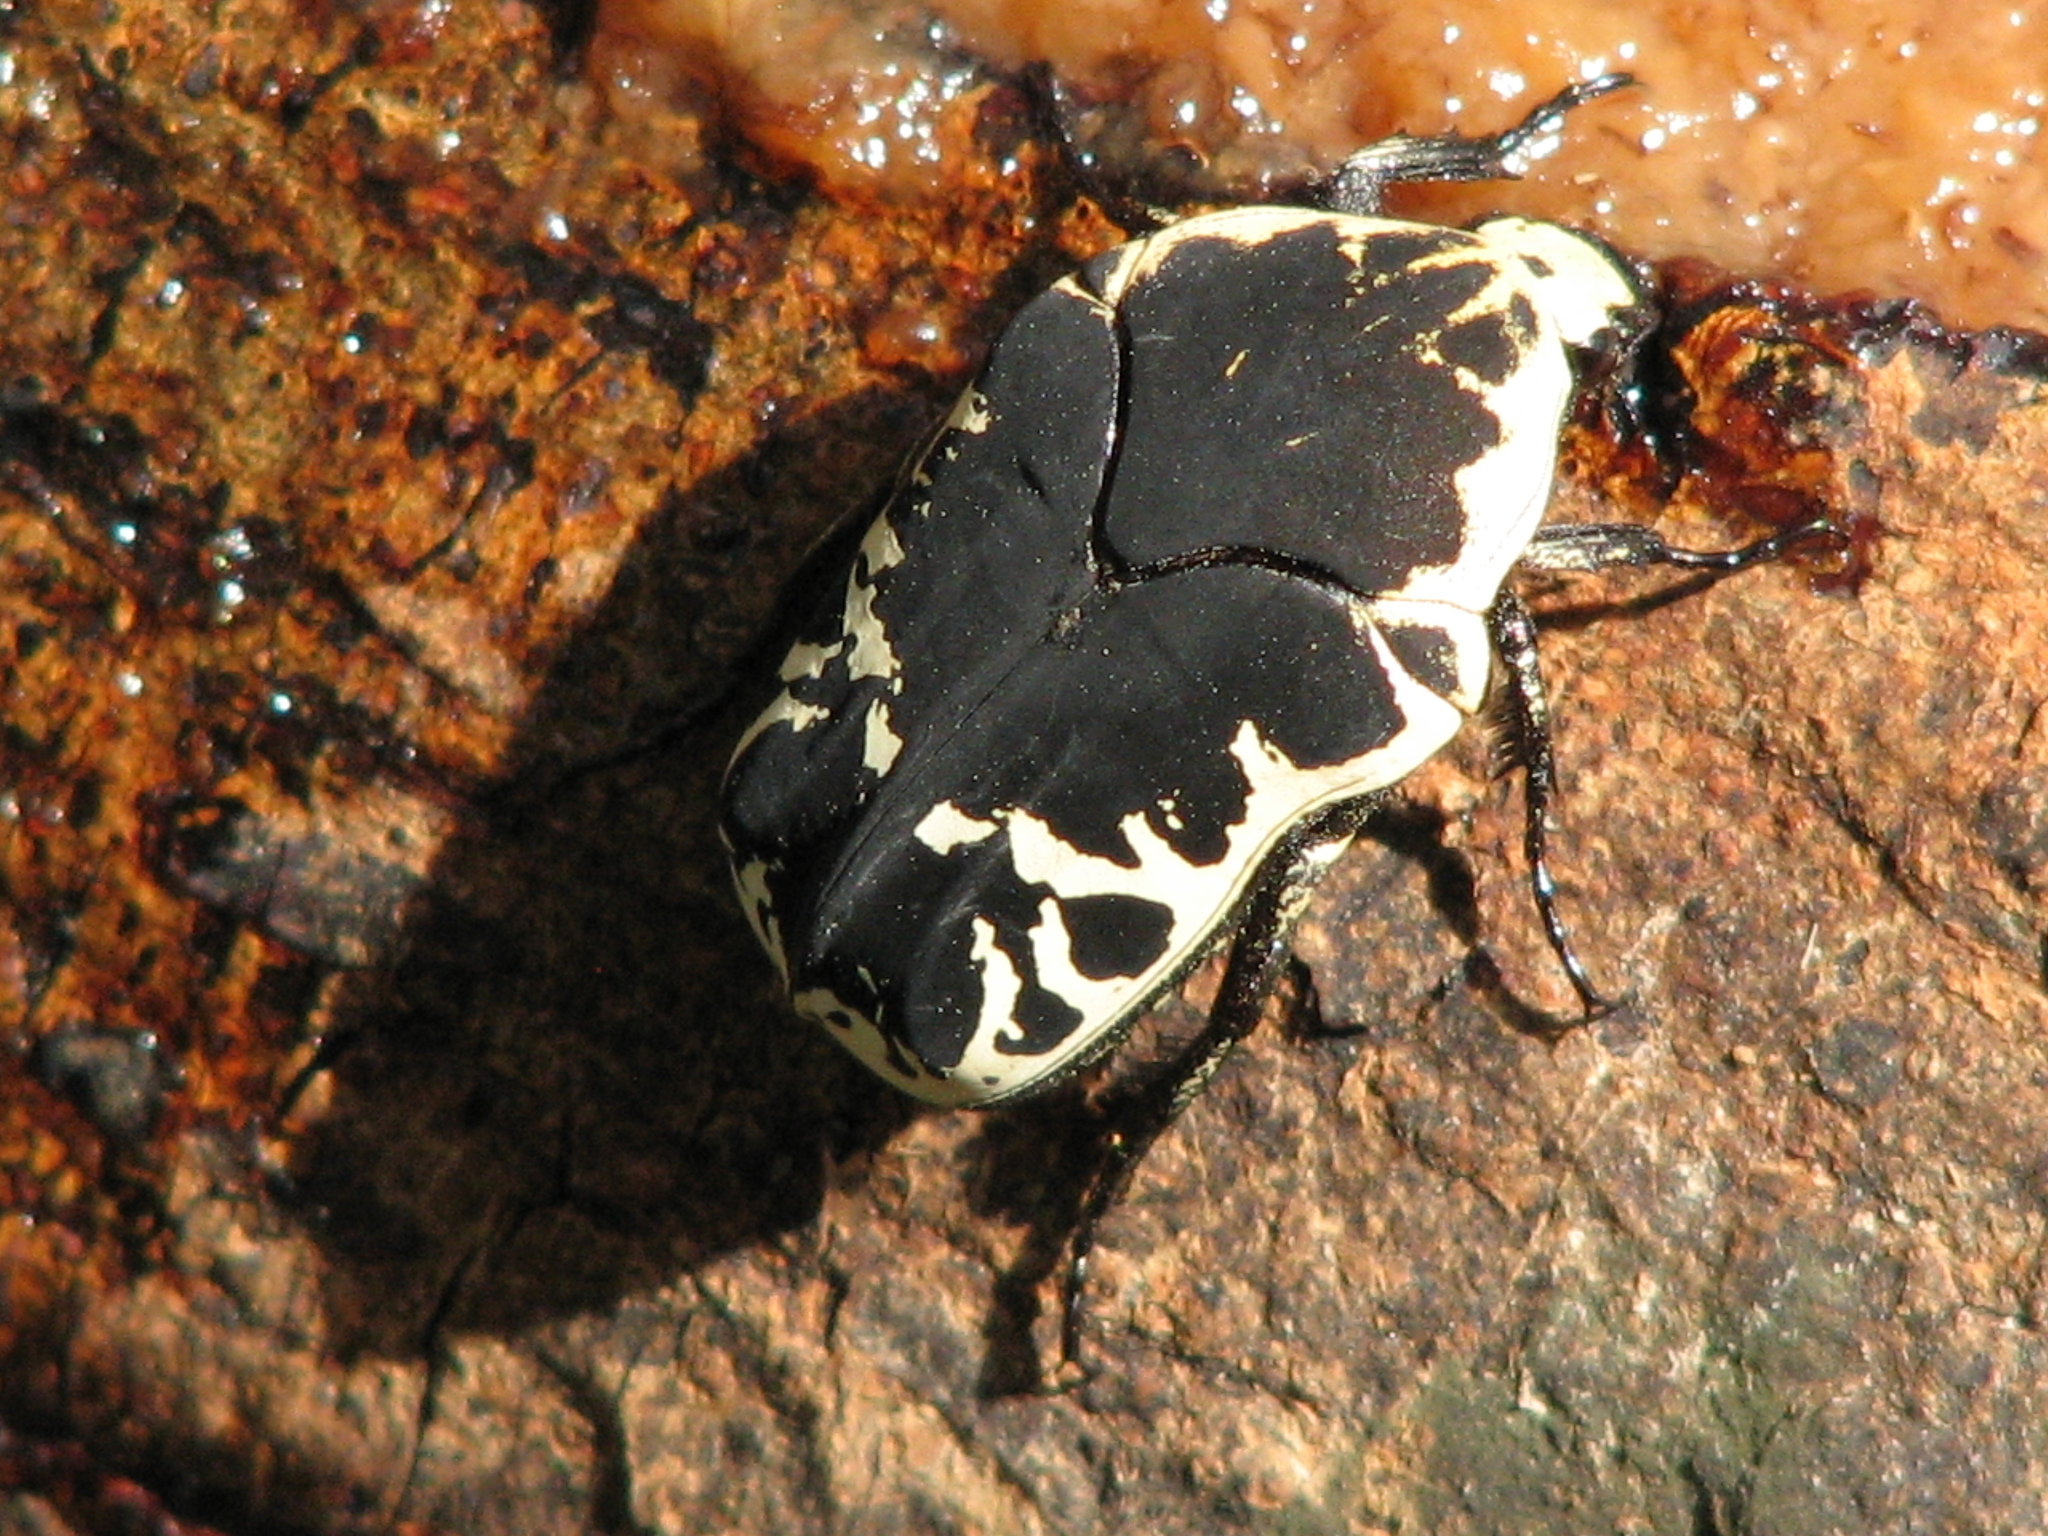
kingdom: Animalia
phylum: Arthropoda
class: Insecta
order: Coleoptera
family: Scarabaeidae
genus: Gymnetis
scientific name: Gymnetis thula
